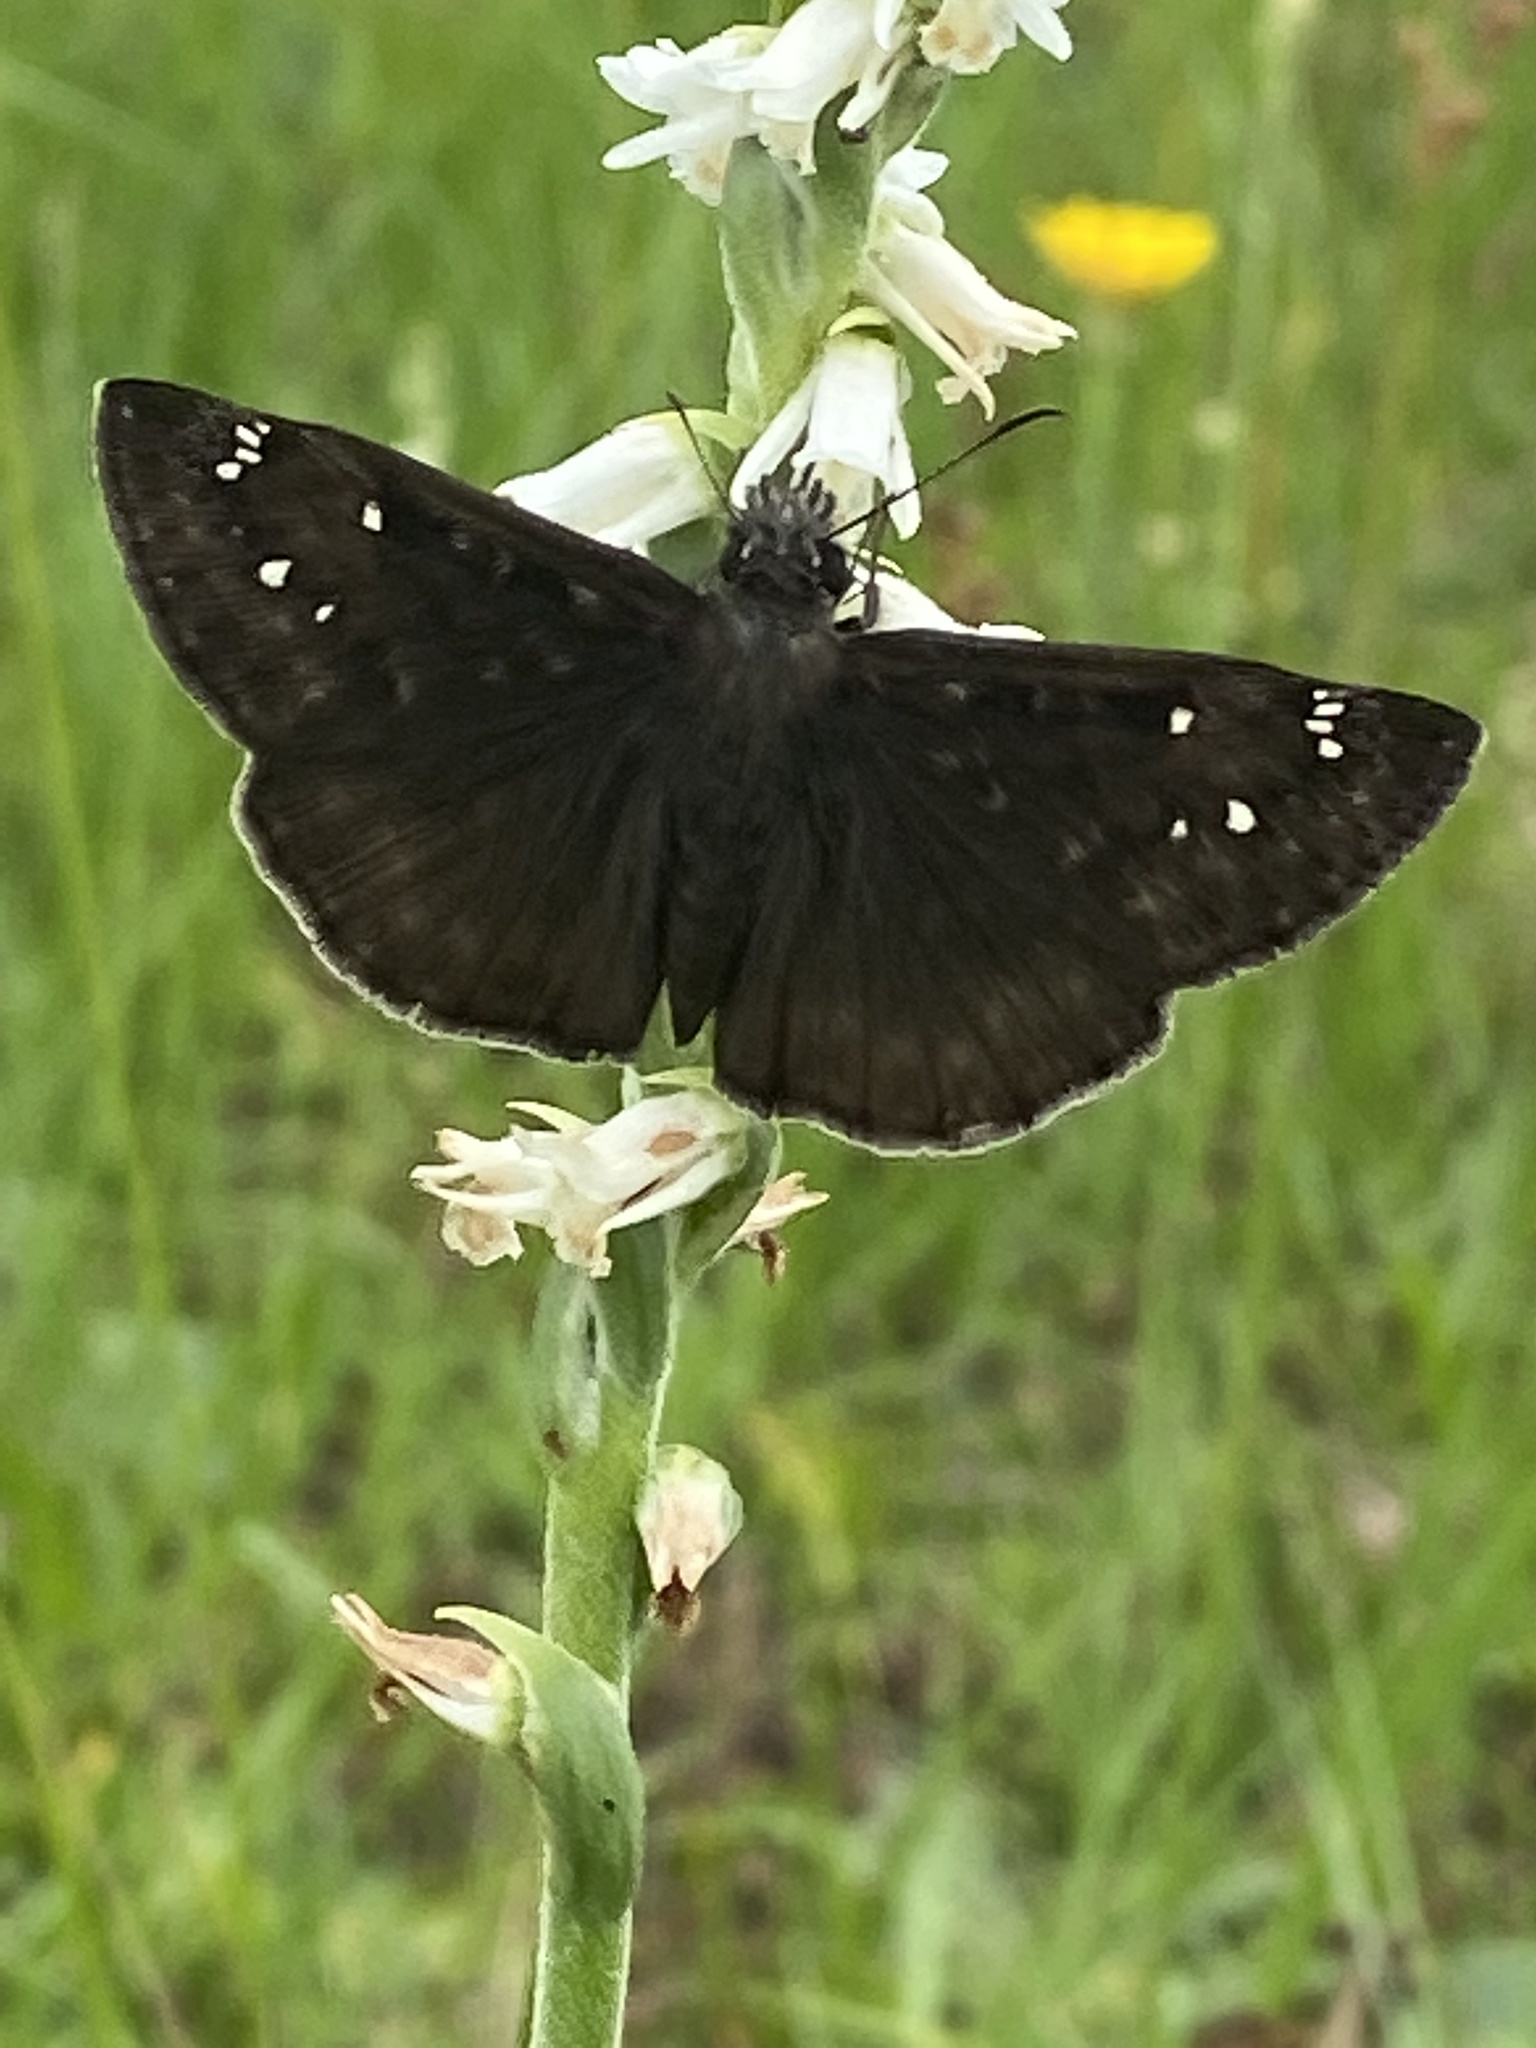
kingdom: Animalia
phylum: Arthropoda
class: Insecta
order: Lepidoptera
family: Hesperiidae
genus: Erynnis
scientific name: Erynnis horatius
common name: Horace's duskywing
